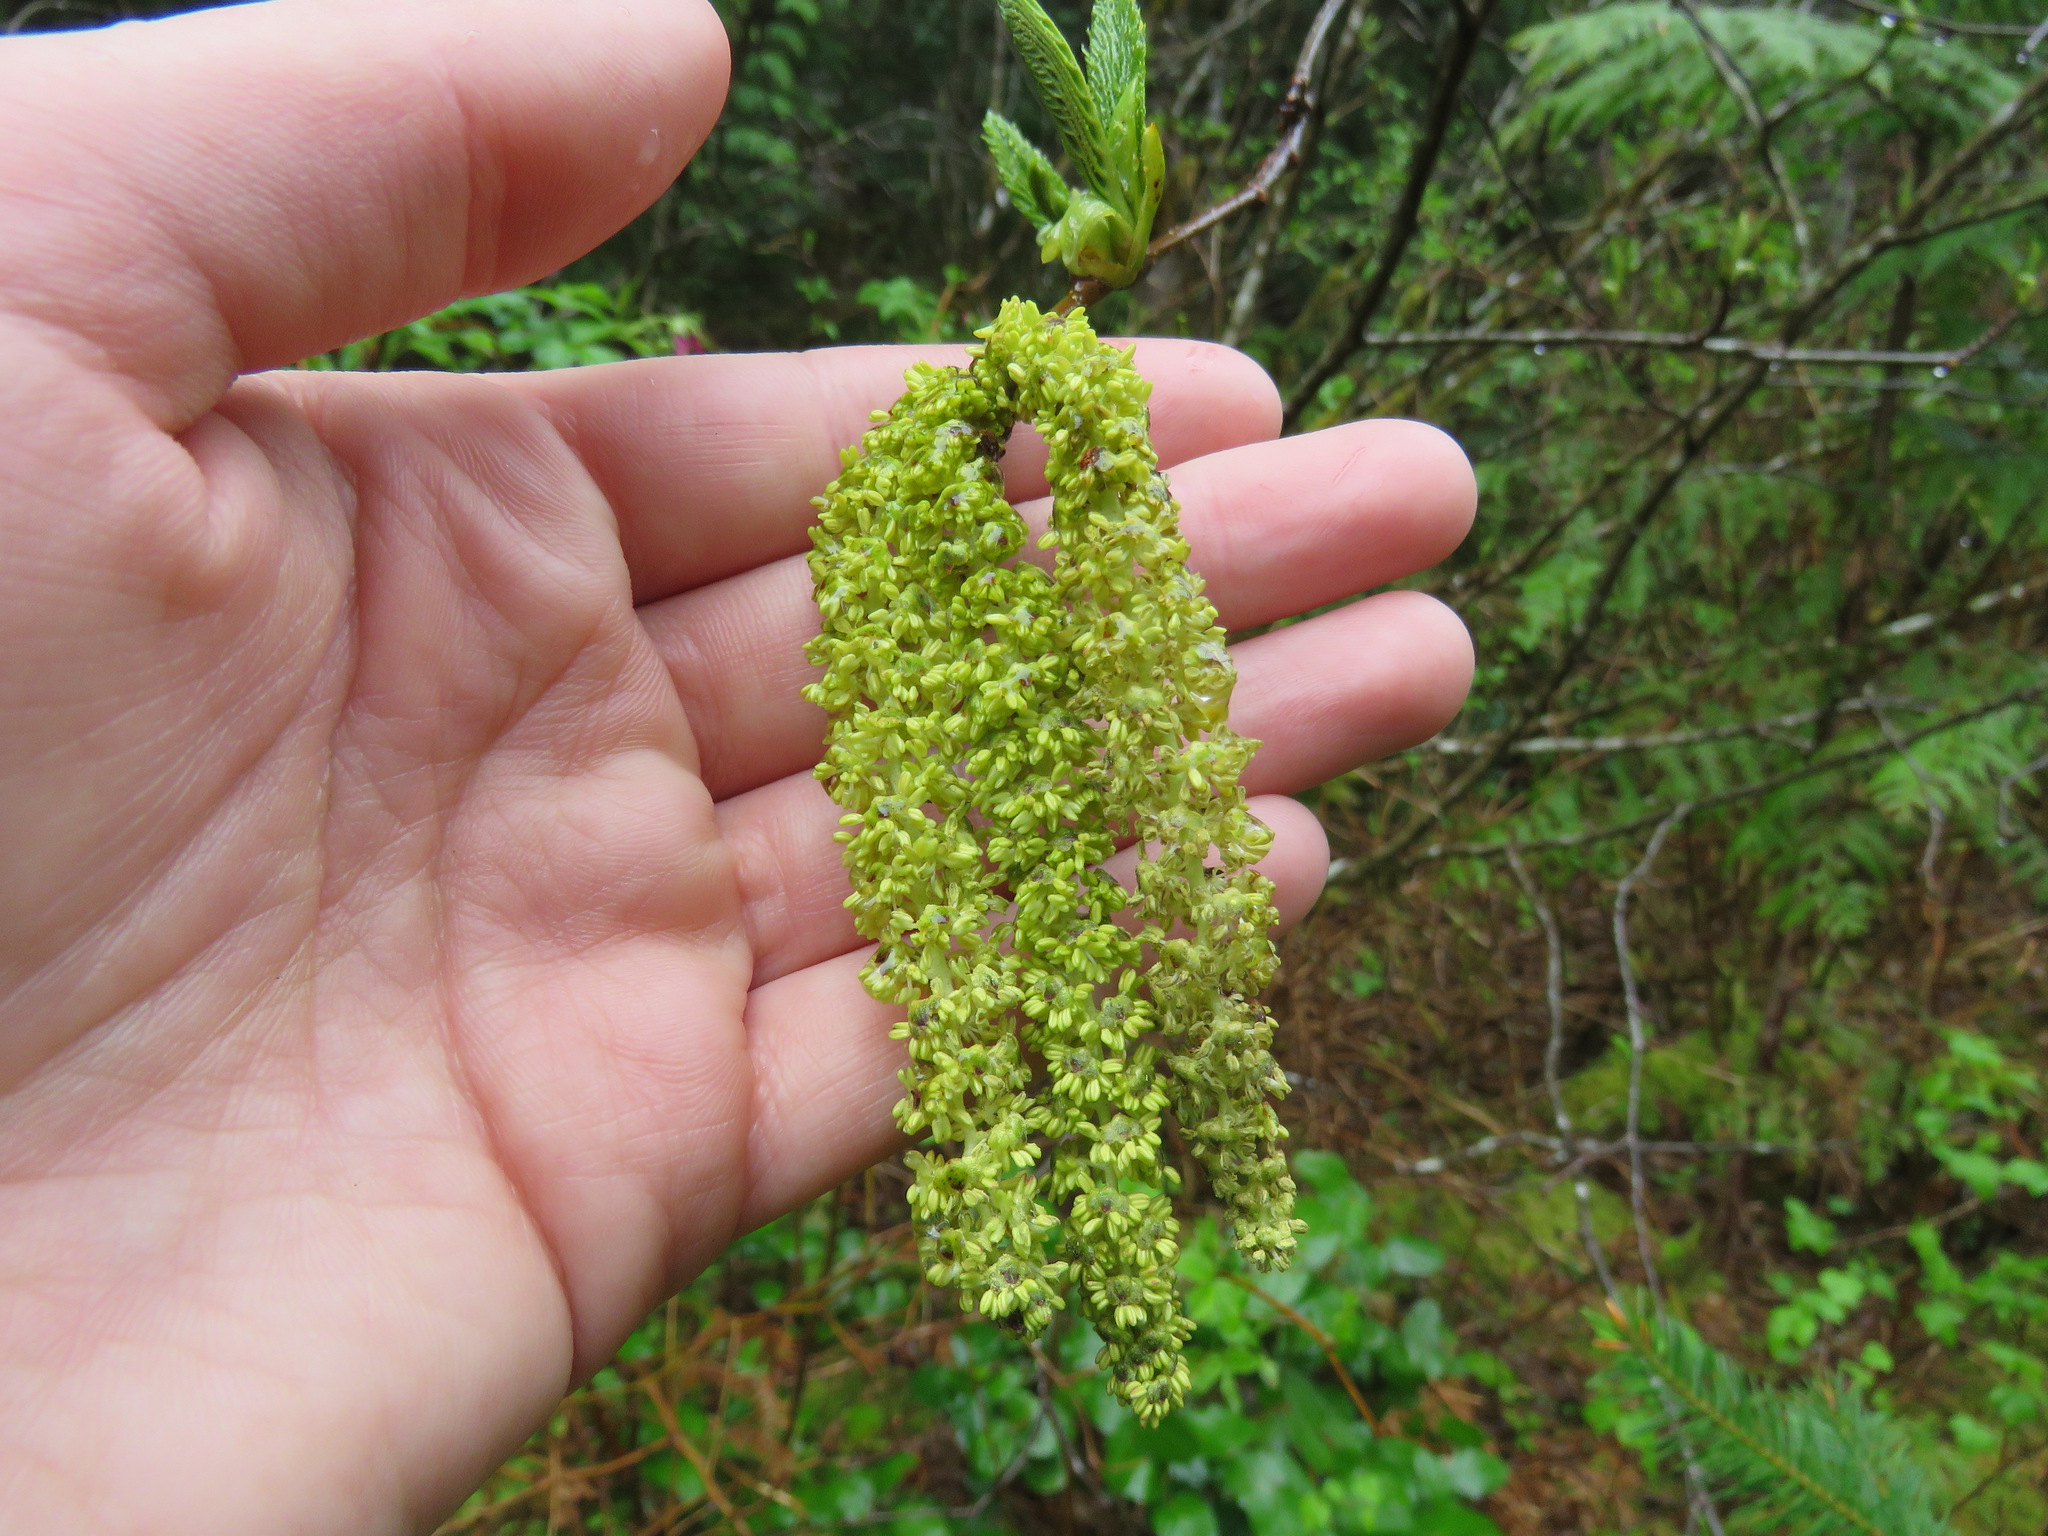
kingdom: Plantae
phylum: Tracheophyta
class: Magnoliopsida
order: Fagales
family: Betulaceae
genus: Alnus
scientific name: Alnus alnobetula
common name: Green alder
